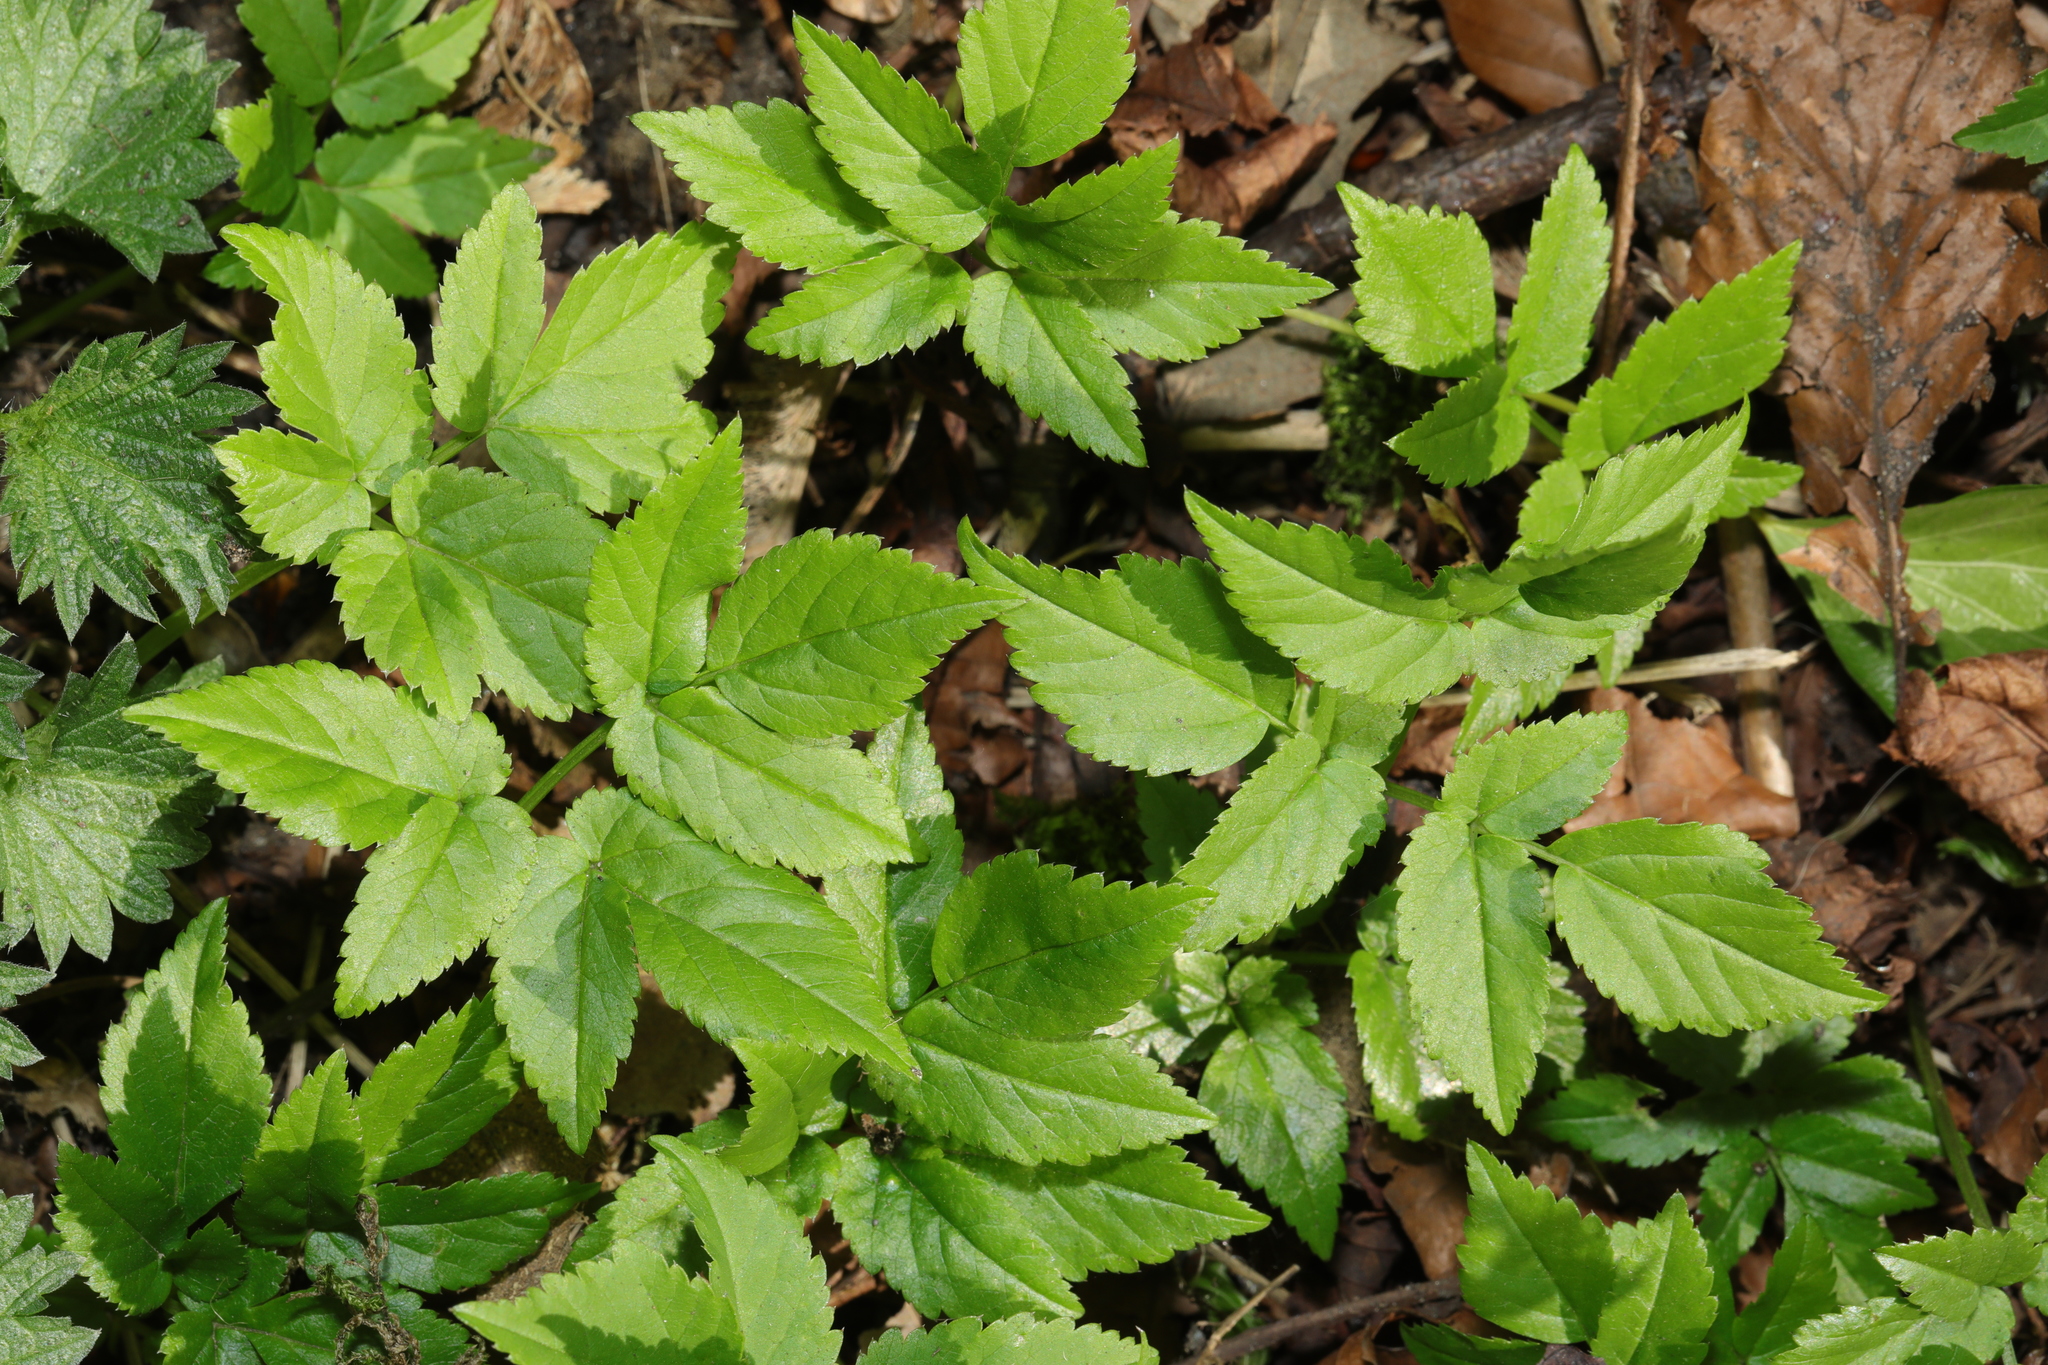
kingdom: Plantae
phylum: Tracheophyta
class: Magnoliopsida
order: Apiales
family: Apiaceae
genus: Aegopodium
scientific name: Aegopodium podagraria
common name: Ground-elder
